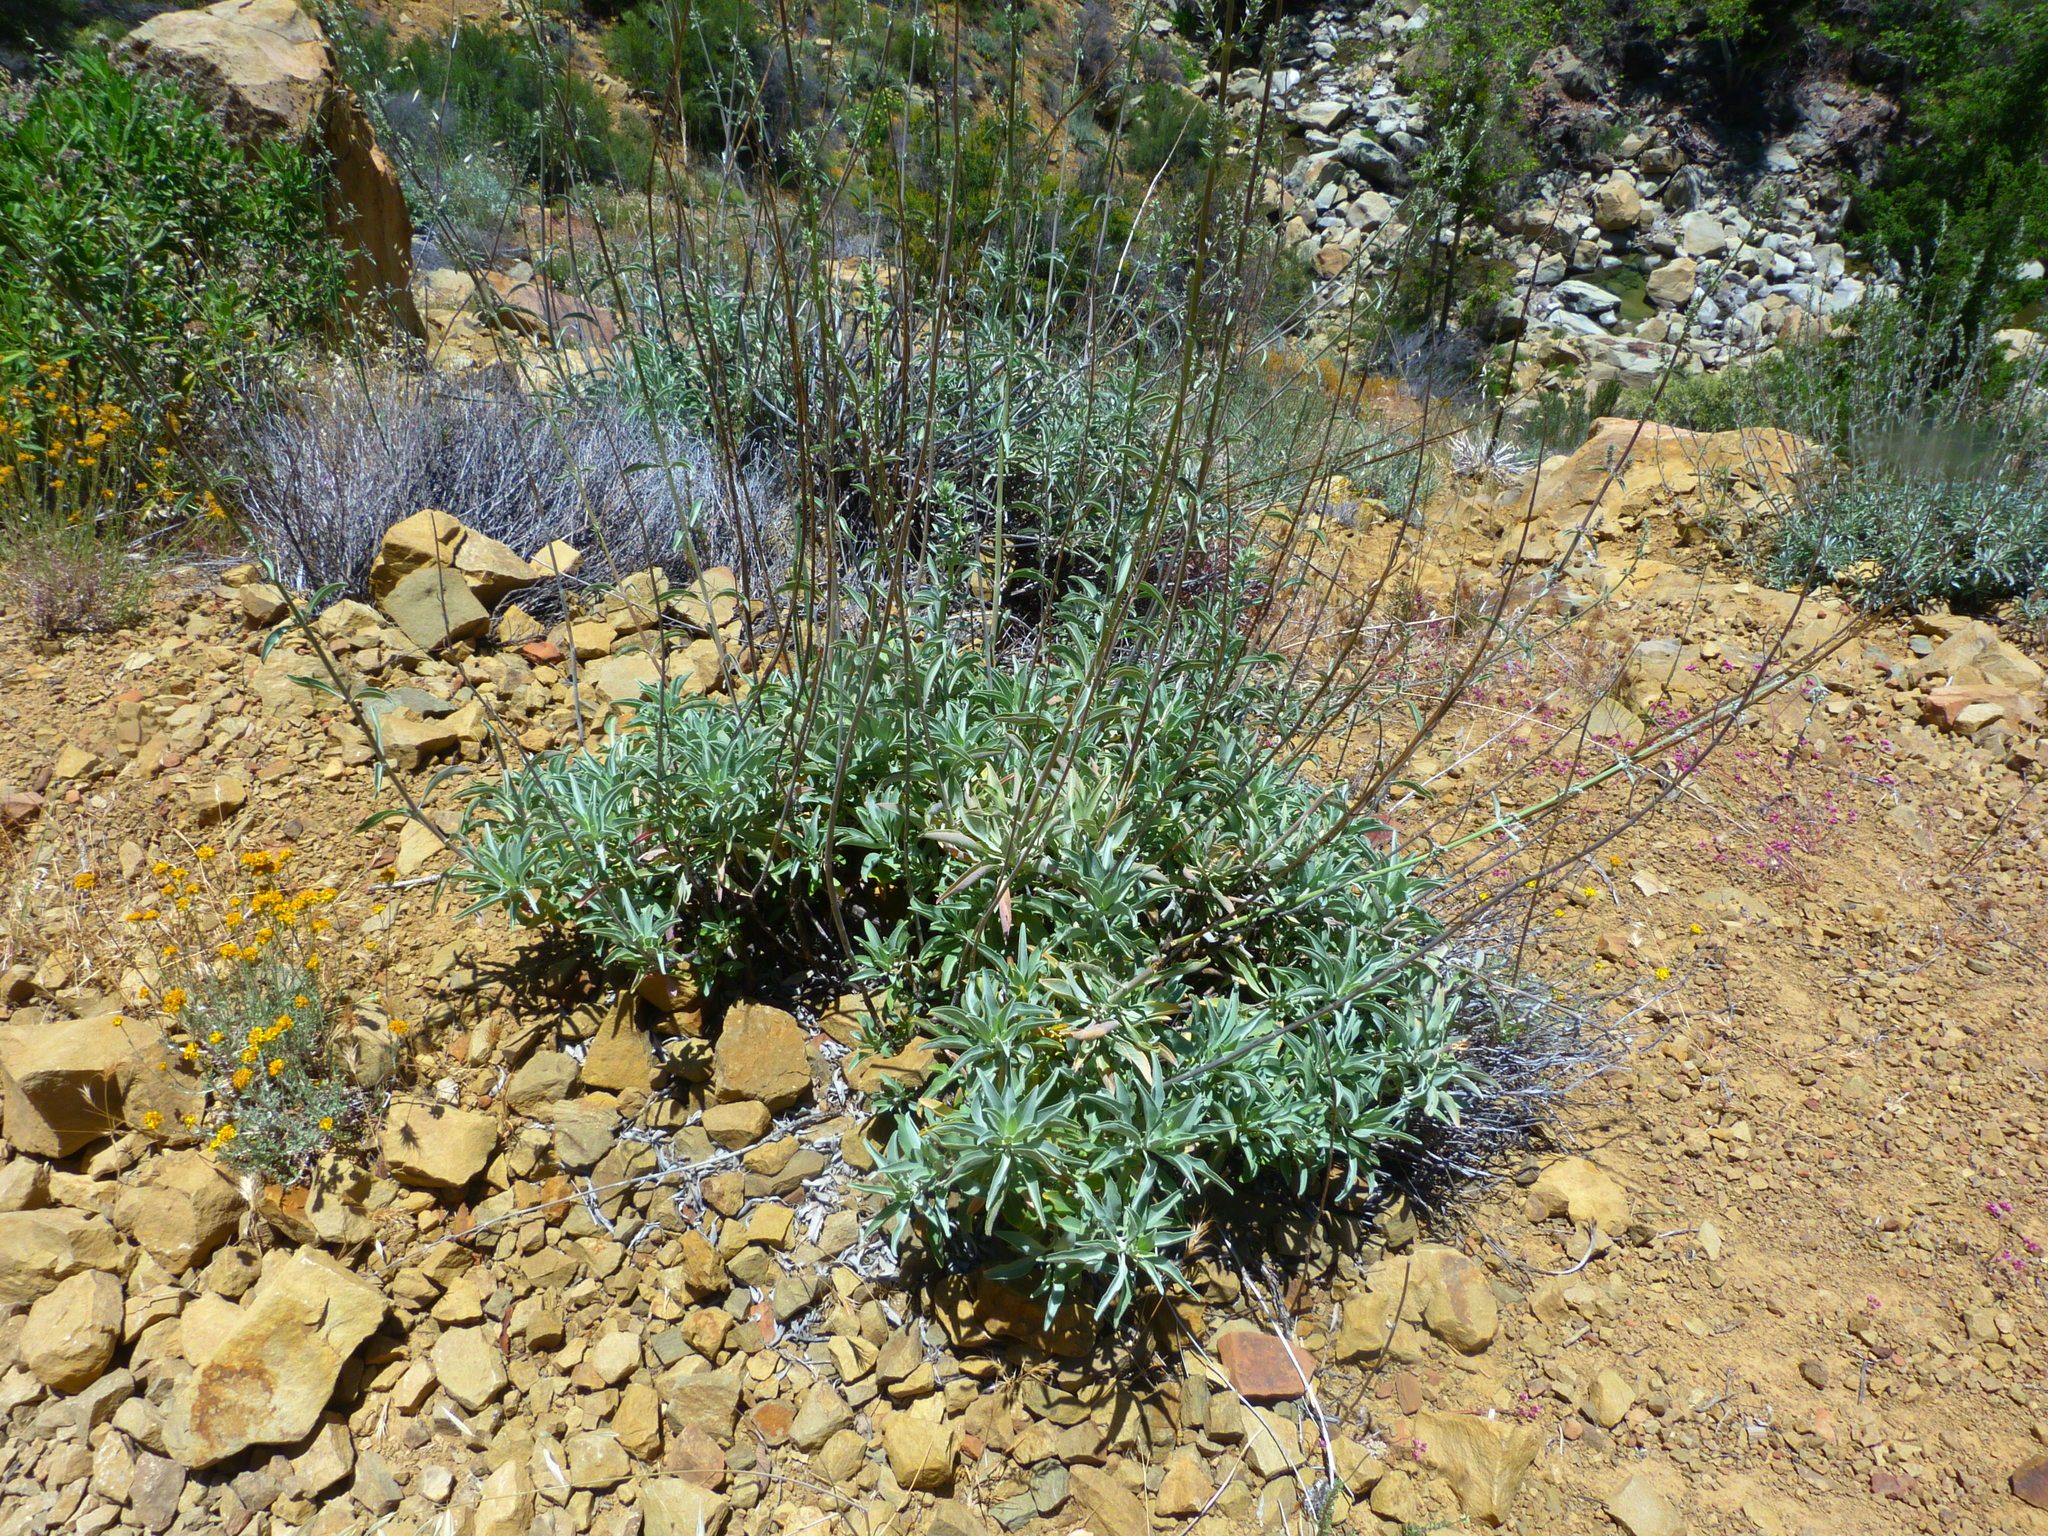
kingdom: Plantae
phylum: Tracheophyta
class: Magnoliopsida
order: Lamiales
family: Lamiaceae
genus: Salvia
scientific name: Salvia apiana
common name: White sage
